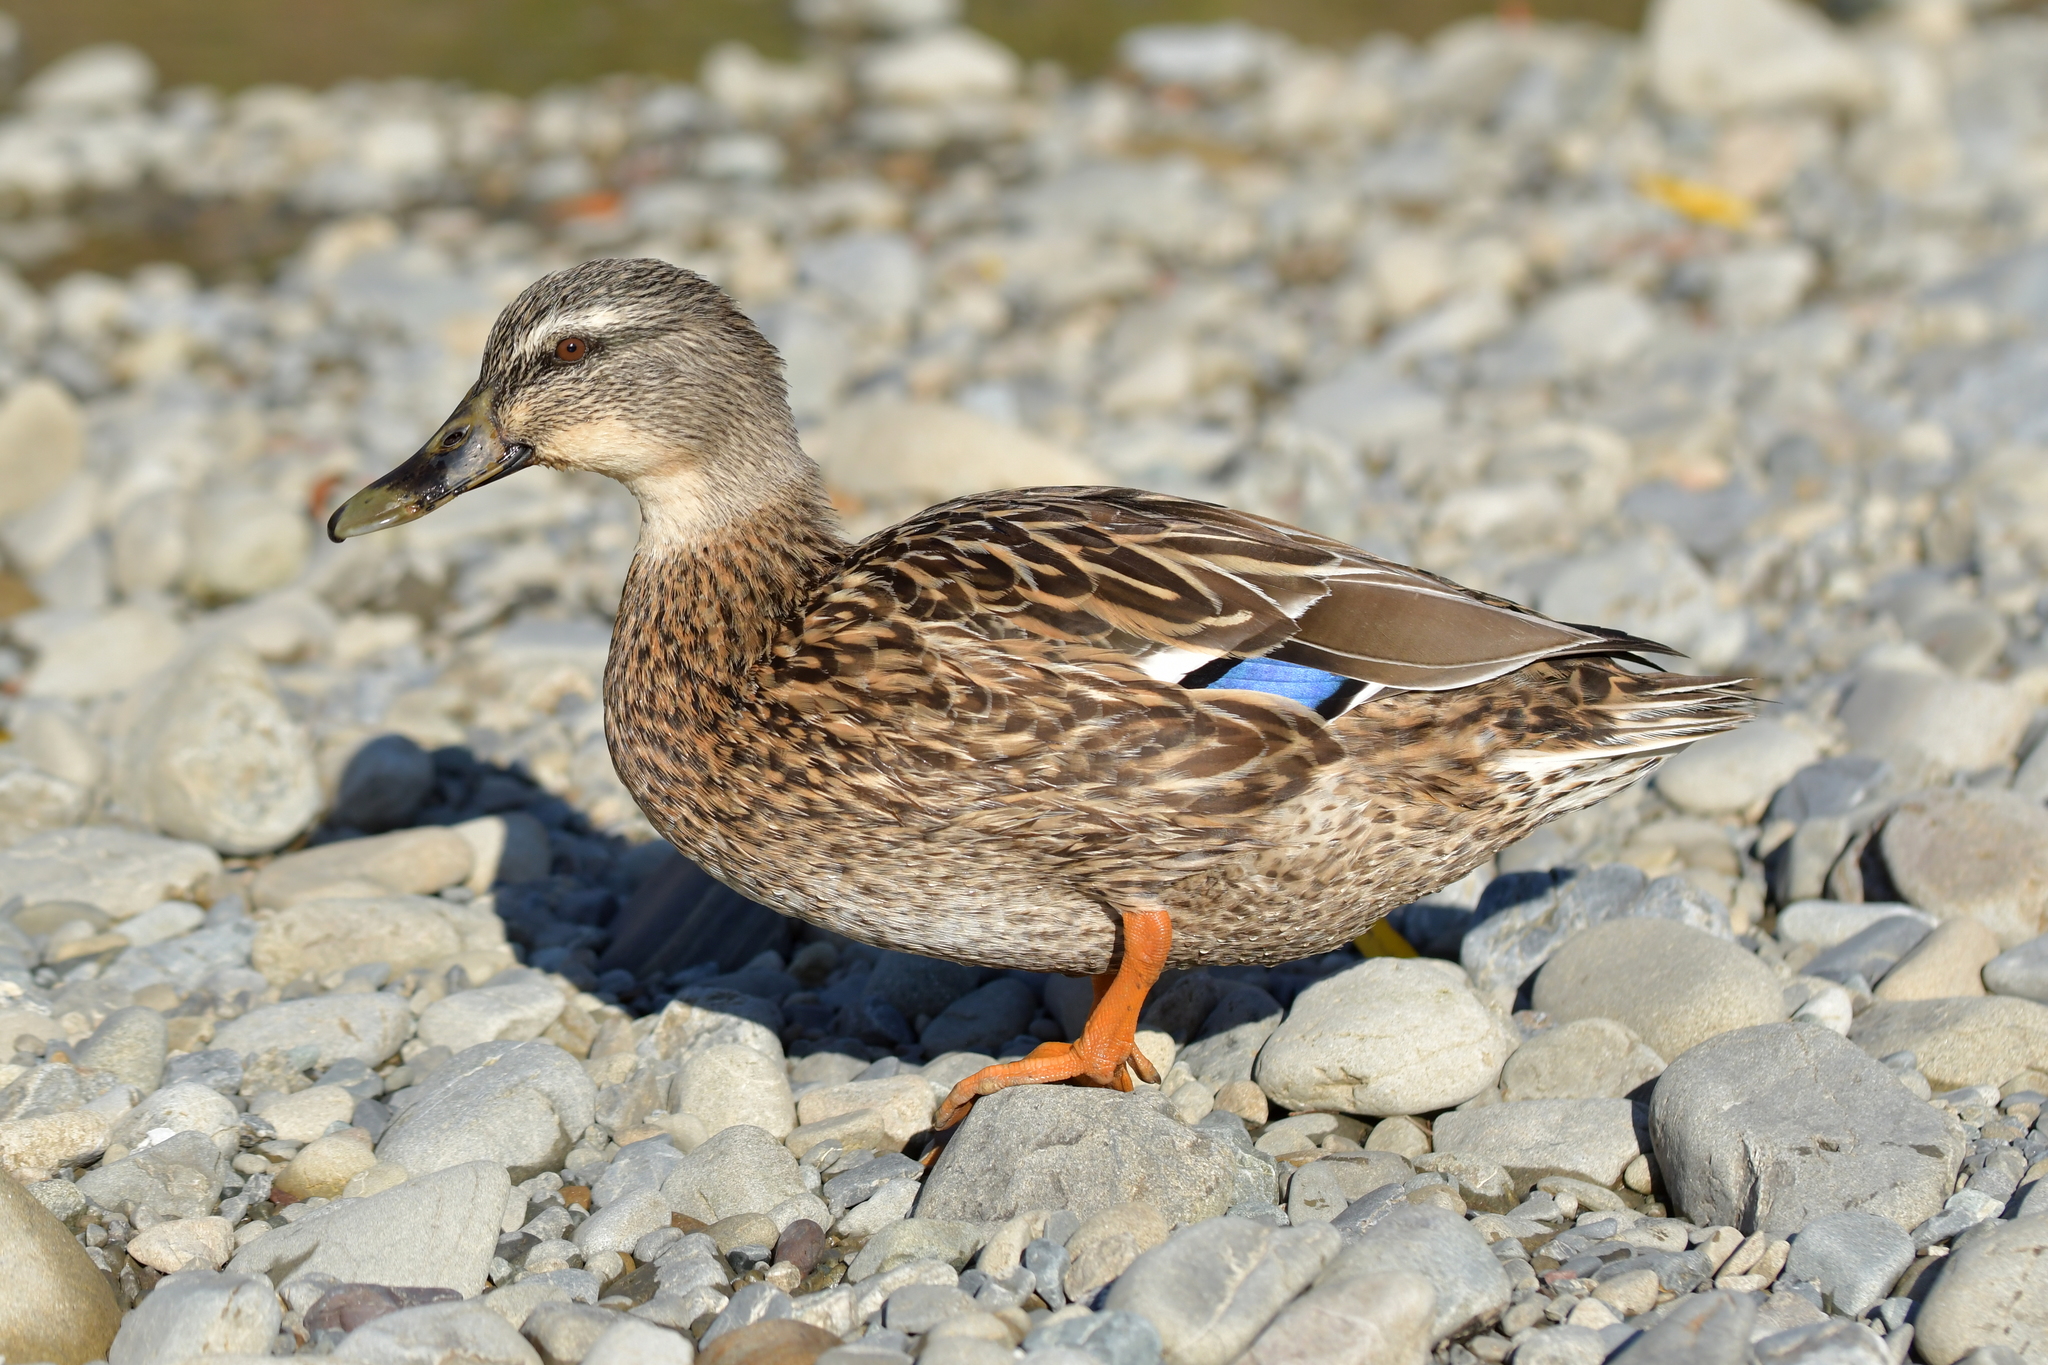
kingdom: Animalia
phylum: Chordata
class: Aves
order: Anseriformes
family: Anatidae
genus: Anas
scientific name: Anas
